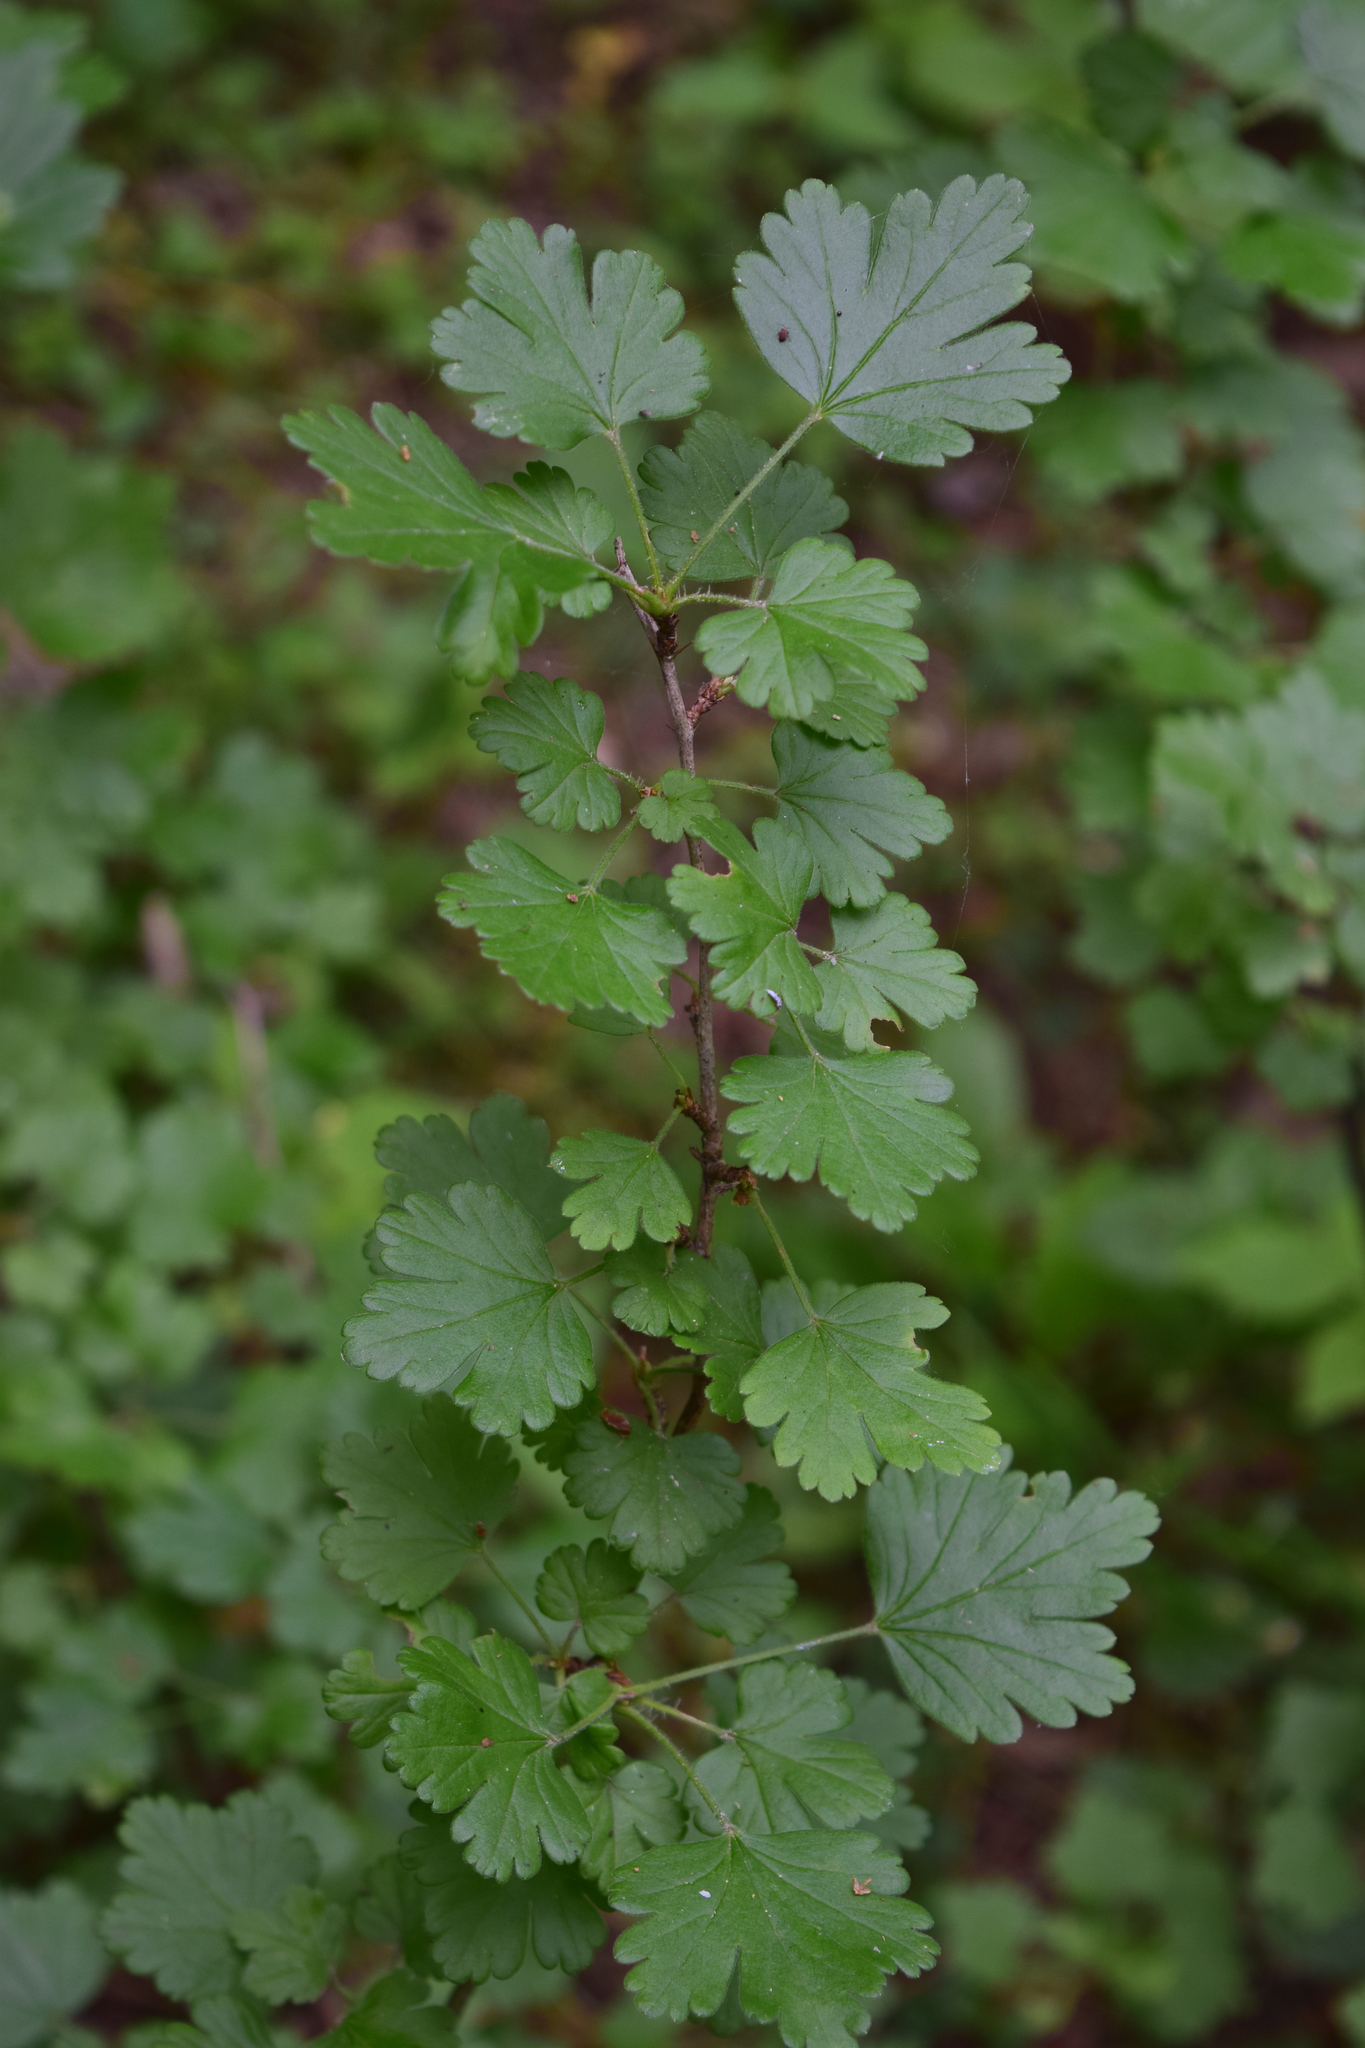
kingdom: Plantae
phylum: Tracheophyta
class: Magnoliopsida
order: Saxifragales
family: Grossulariaceae
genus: Ribes
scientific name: Ribes uva-crispa
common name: Gooseberry
